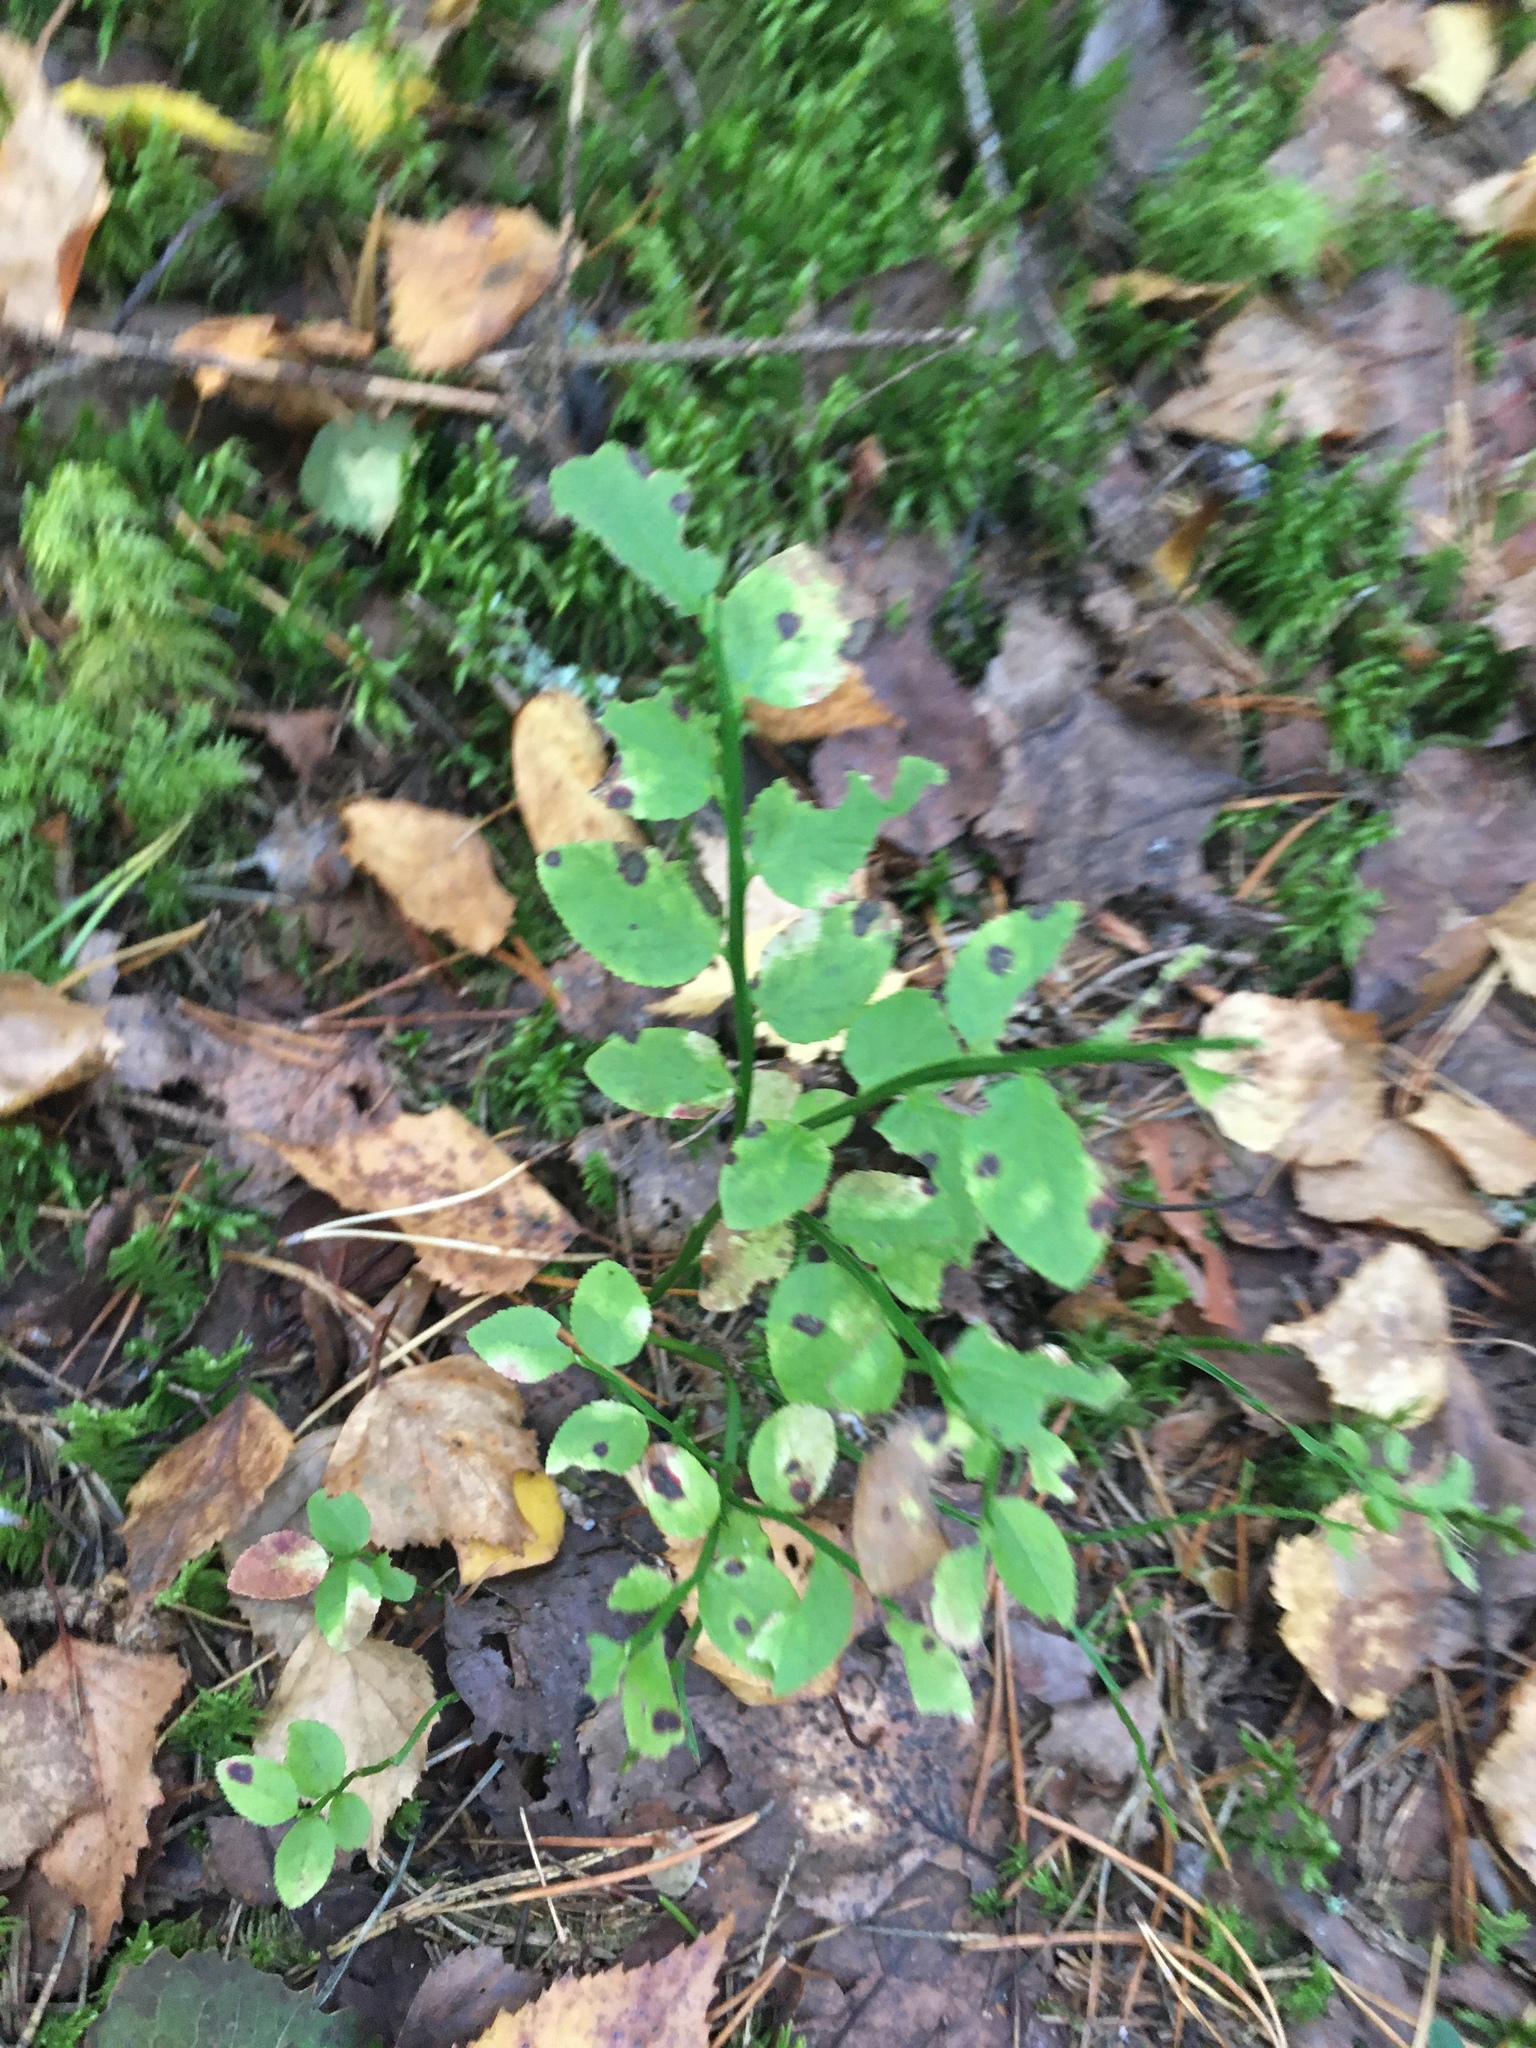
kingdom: Plantae
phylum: Tracheophyta
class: Magnoliopsida
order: Ericales
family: Ericaceae
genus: Vaccinium
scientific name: Vaccinium myrtillus
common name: Bilberry
